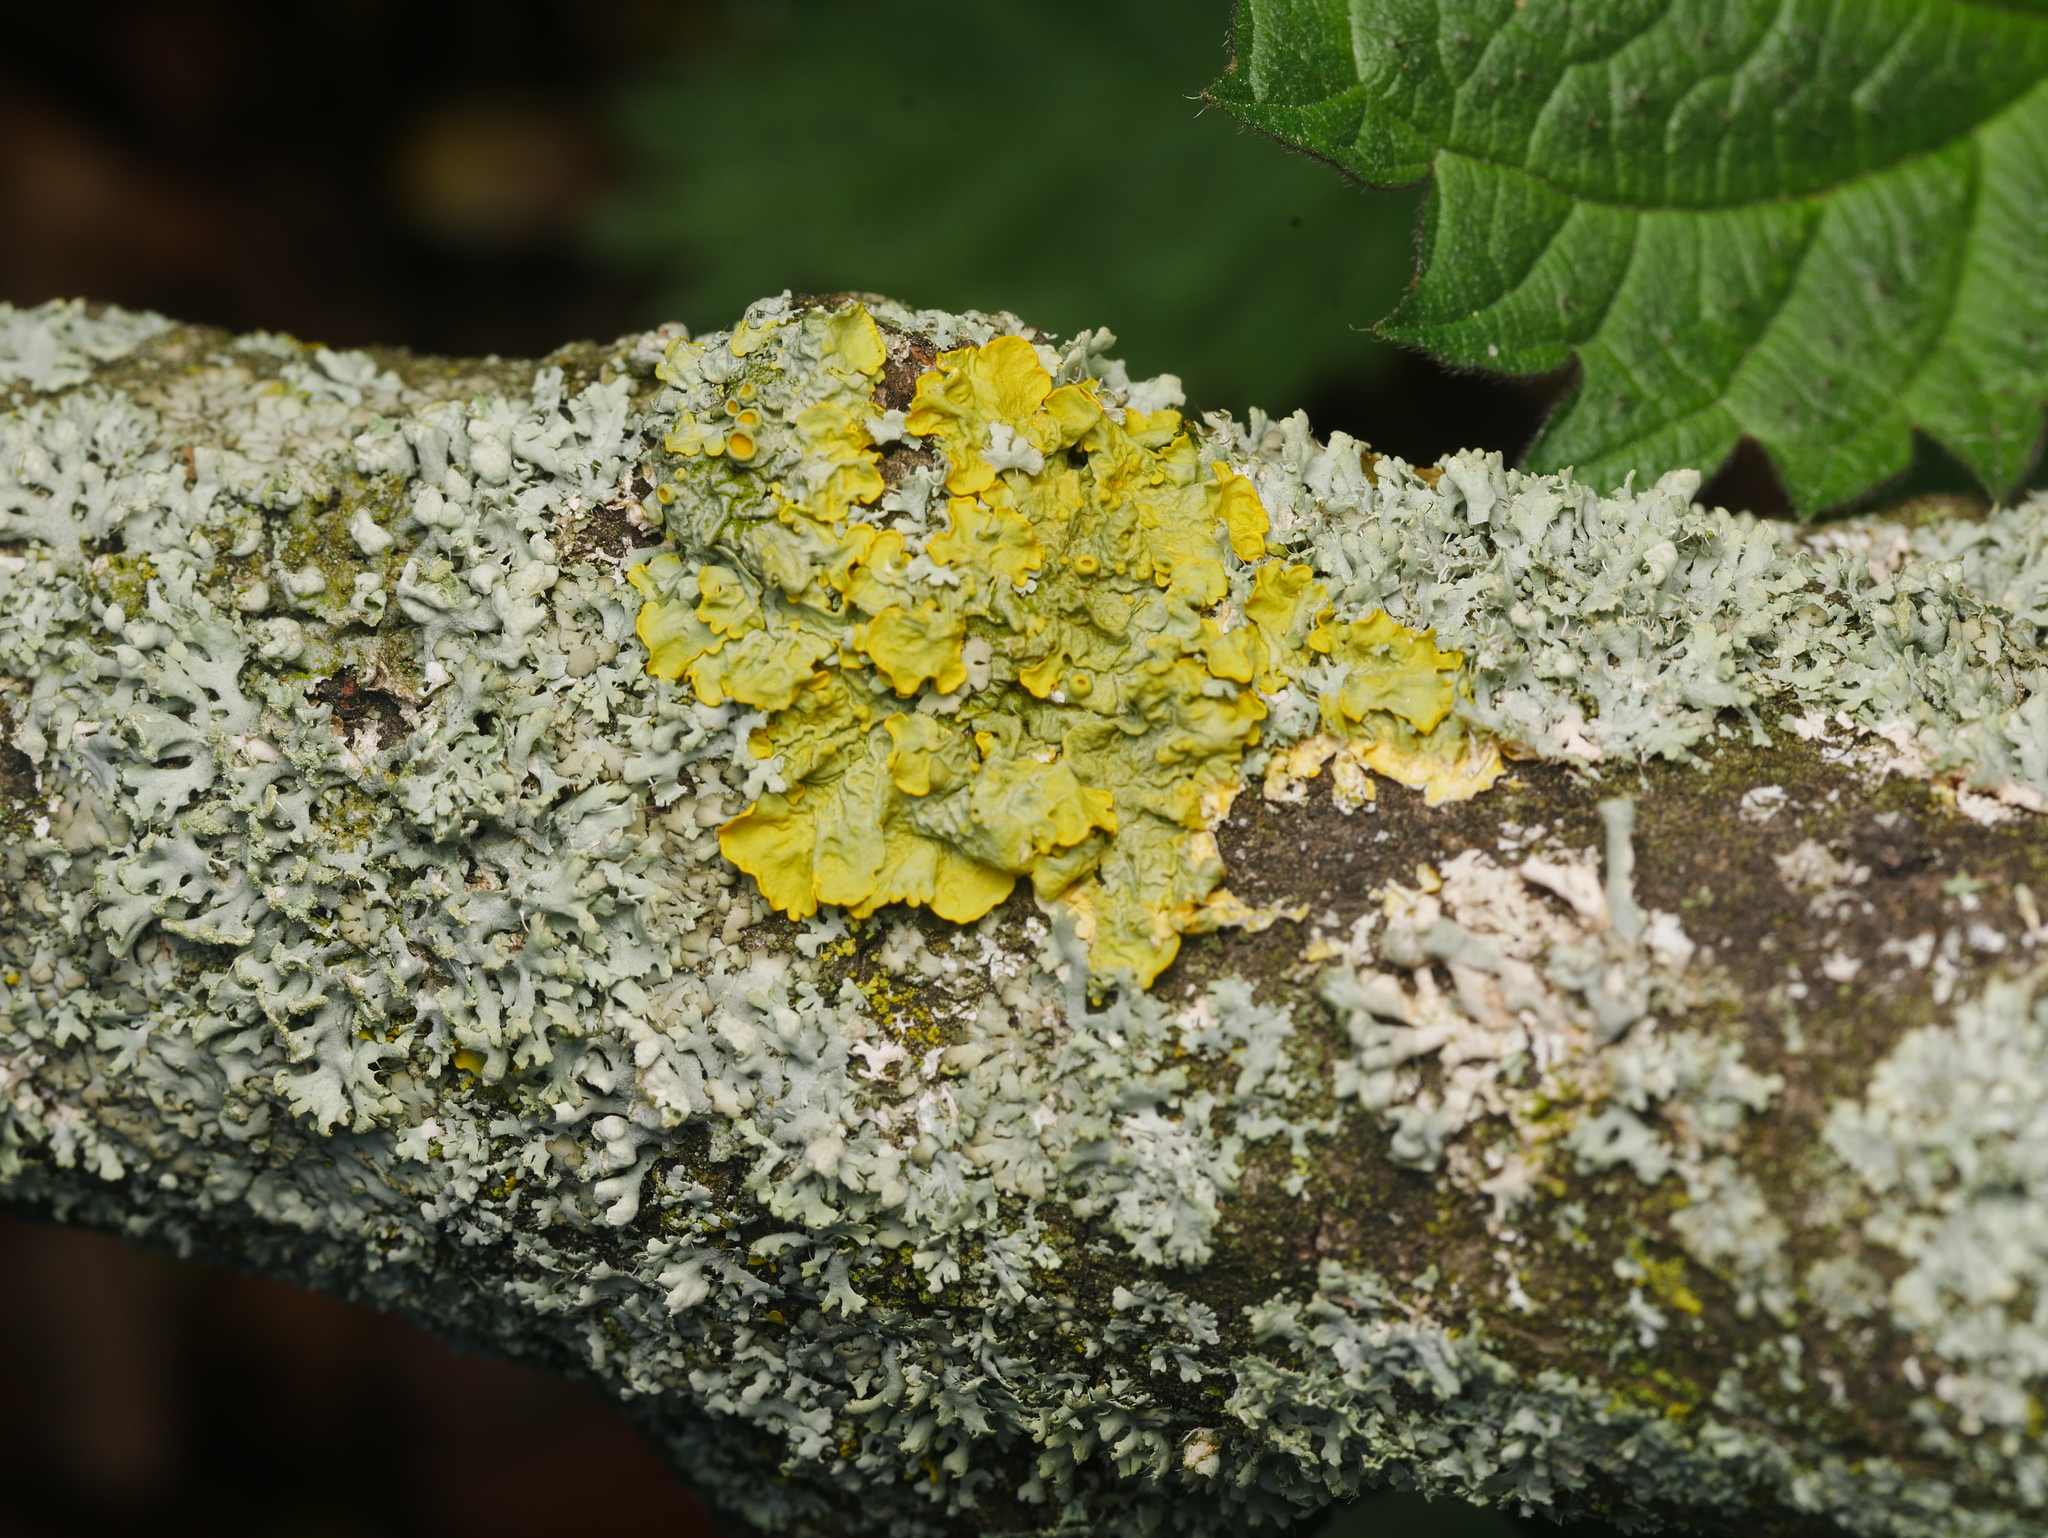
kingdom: Fungi
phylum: Ascomycota
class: Lecanoromycetes
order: Teloschistales
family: Teloschistaceae
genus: Xanthoria
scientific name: Xanthoria parietina
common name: Common orange lichen
